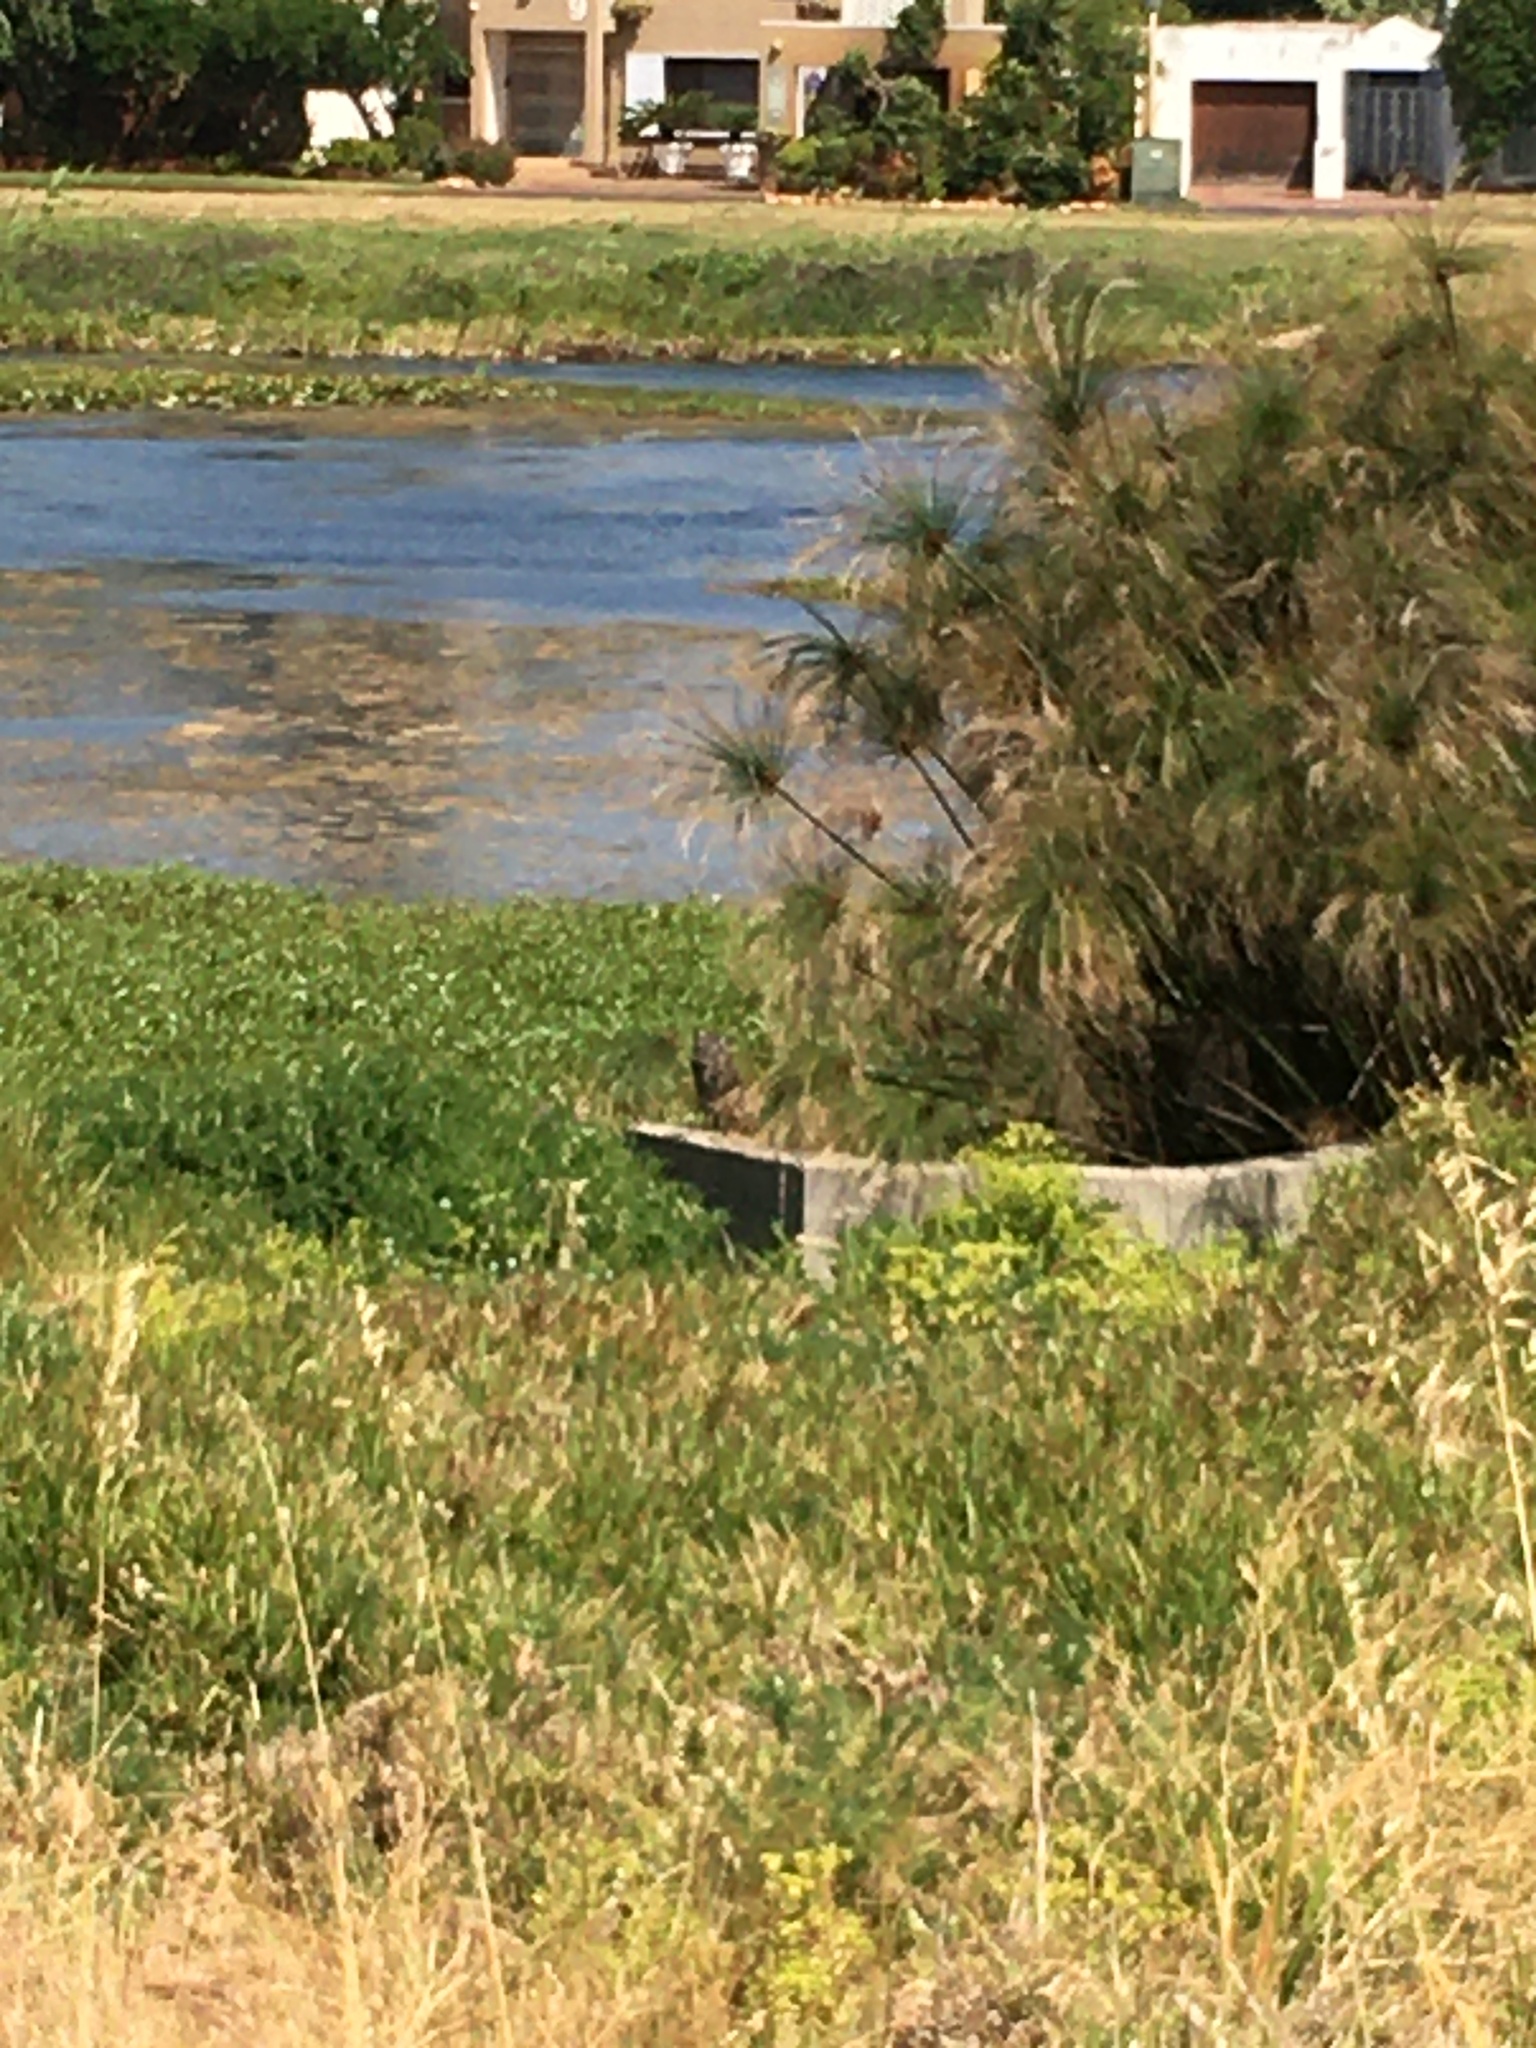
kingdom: Animalia
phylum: Chordata
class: Aves
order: Strigiformes
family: Strigidae
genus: Bubo
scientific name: Bubo africanus
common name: Spotted eagle-owl
